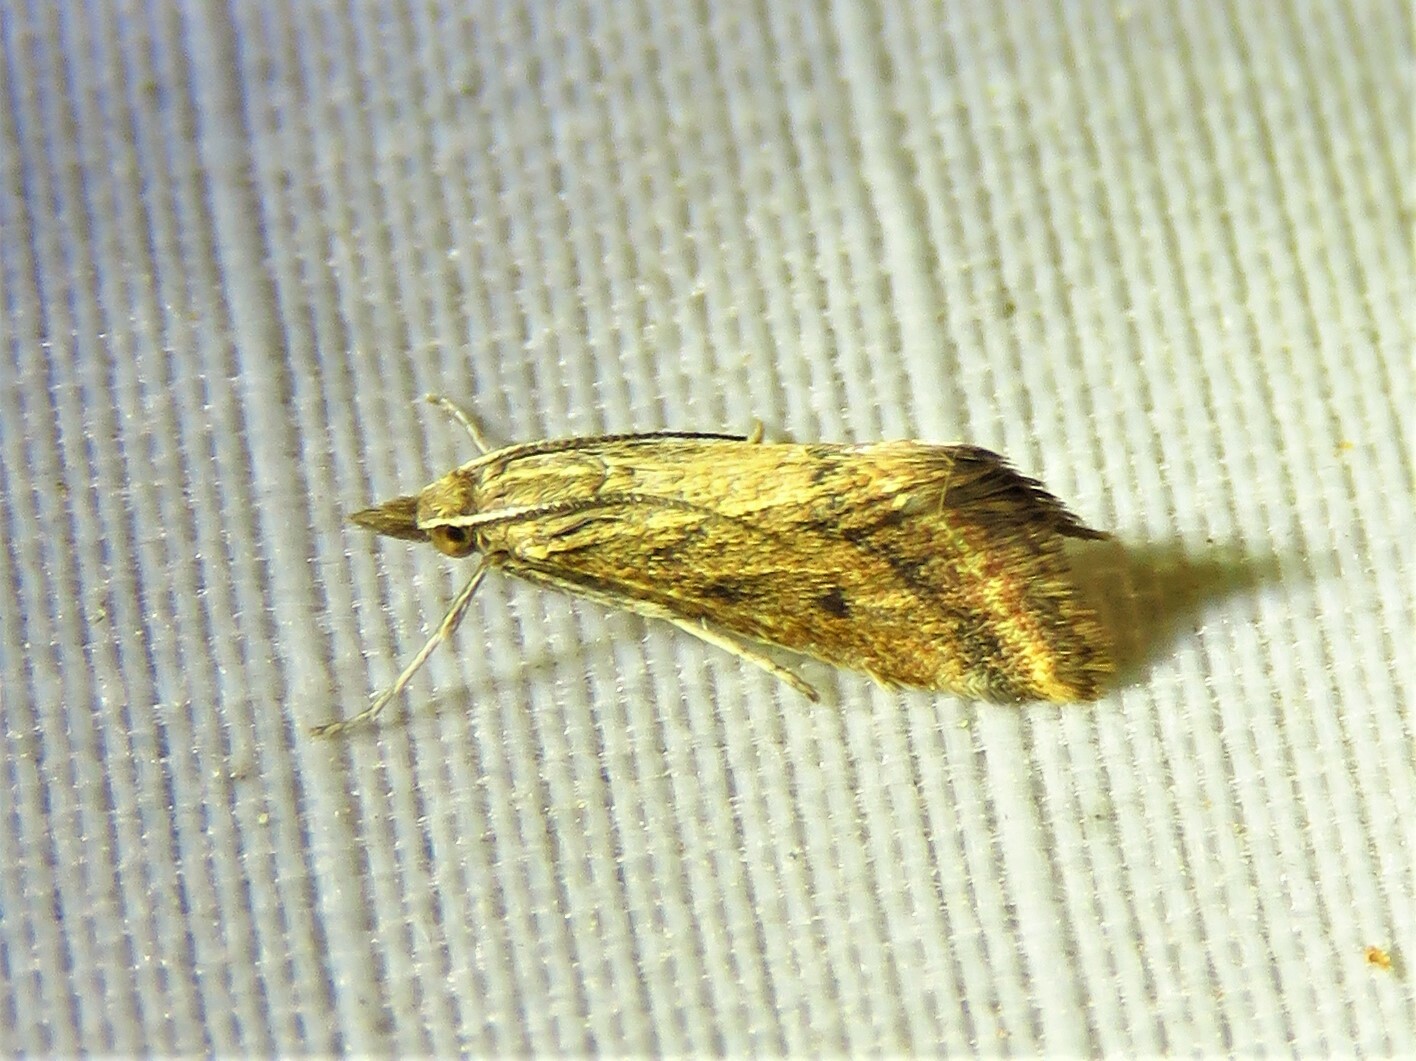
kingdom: Animalia
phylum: Arthropoda
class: Insecta
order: Lepidoptera
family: Crambidae
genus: Microtheoris
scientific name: Microtheoris ophionalis
